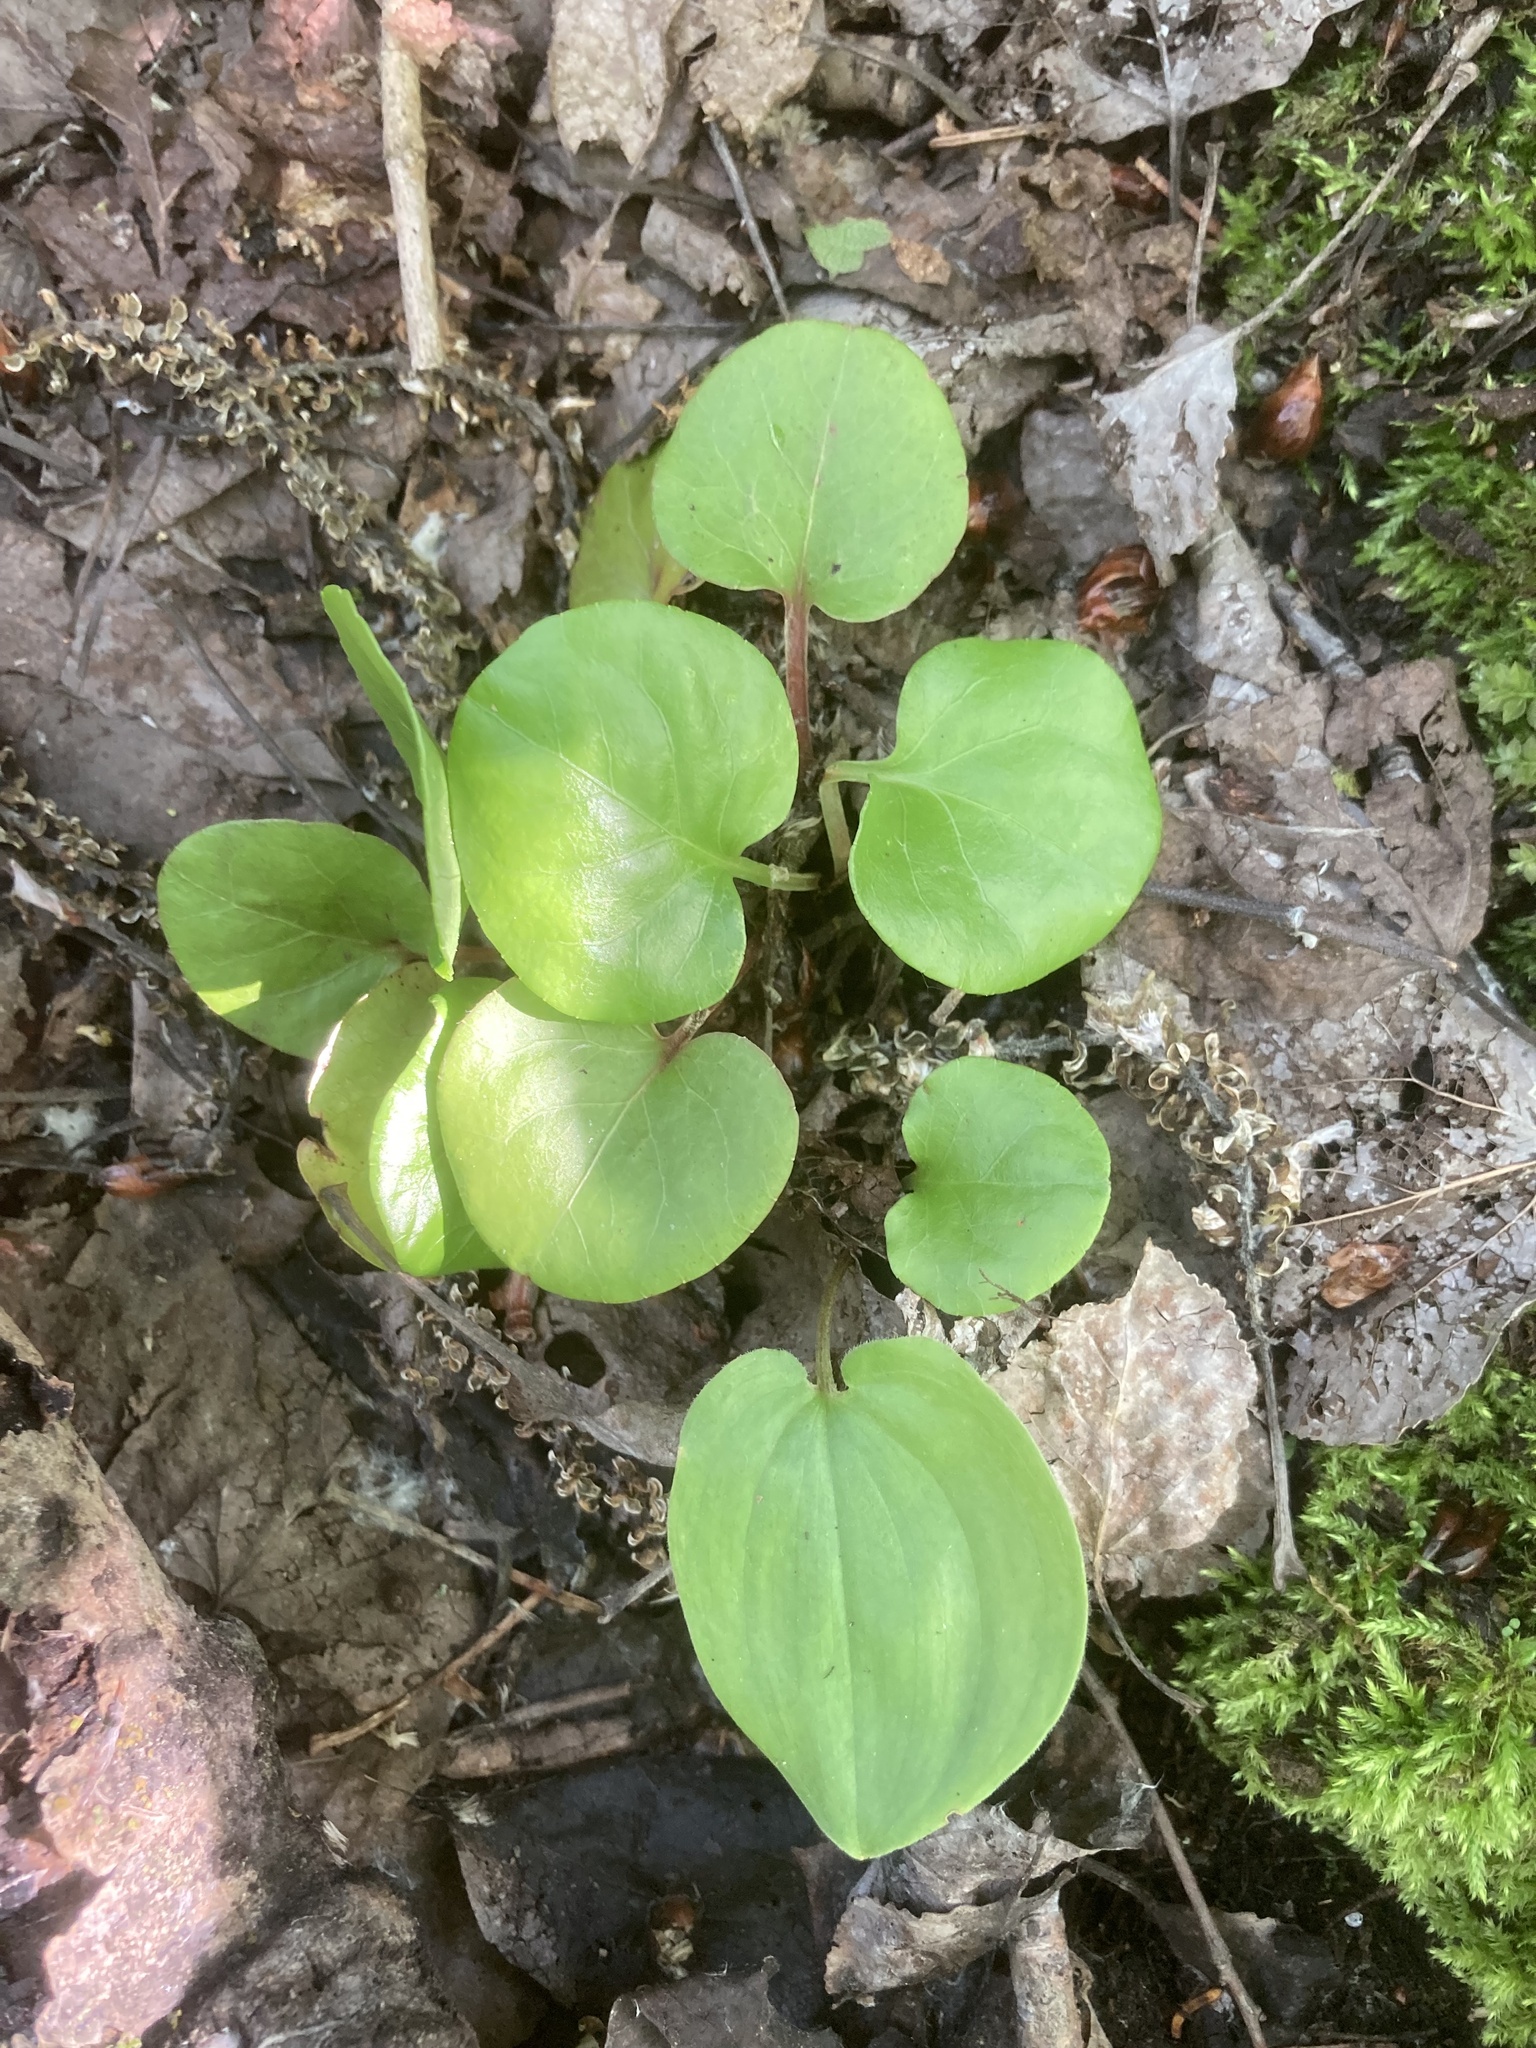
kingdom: Plantae
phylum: Tracheophyta
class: Magnoliopsida
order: Ericales
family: Ericaceae
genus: Pyrola
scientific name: Pyrola asarifolia
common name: Bog wintergreen
